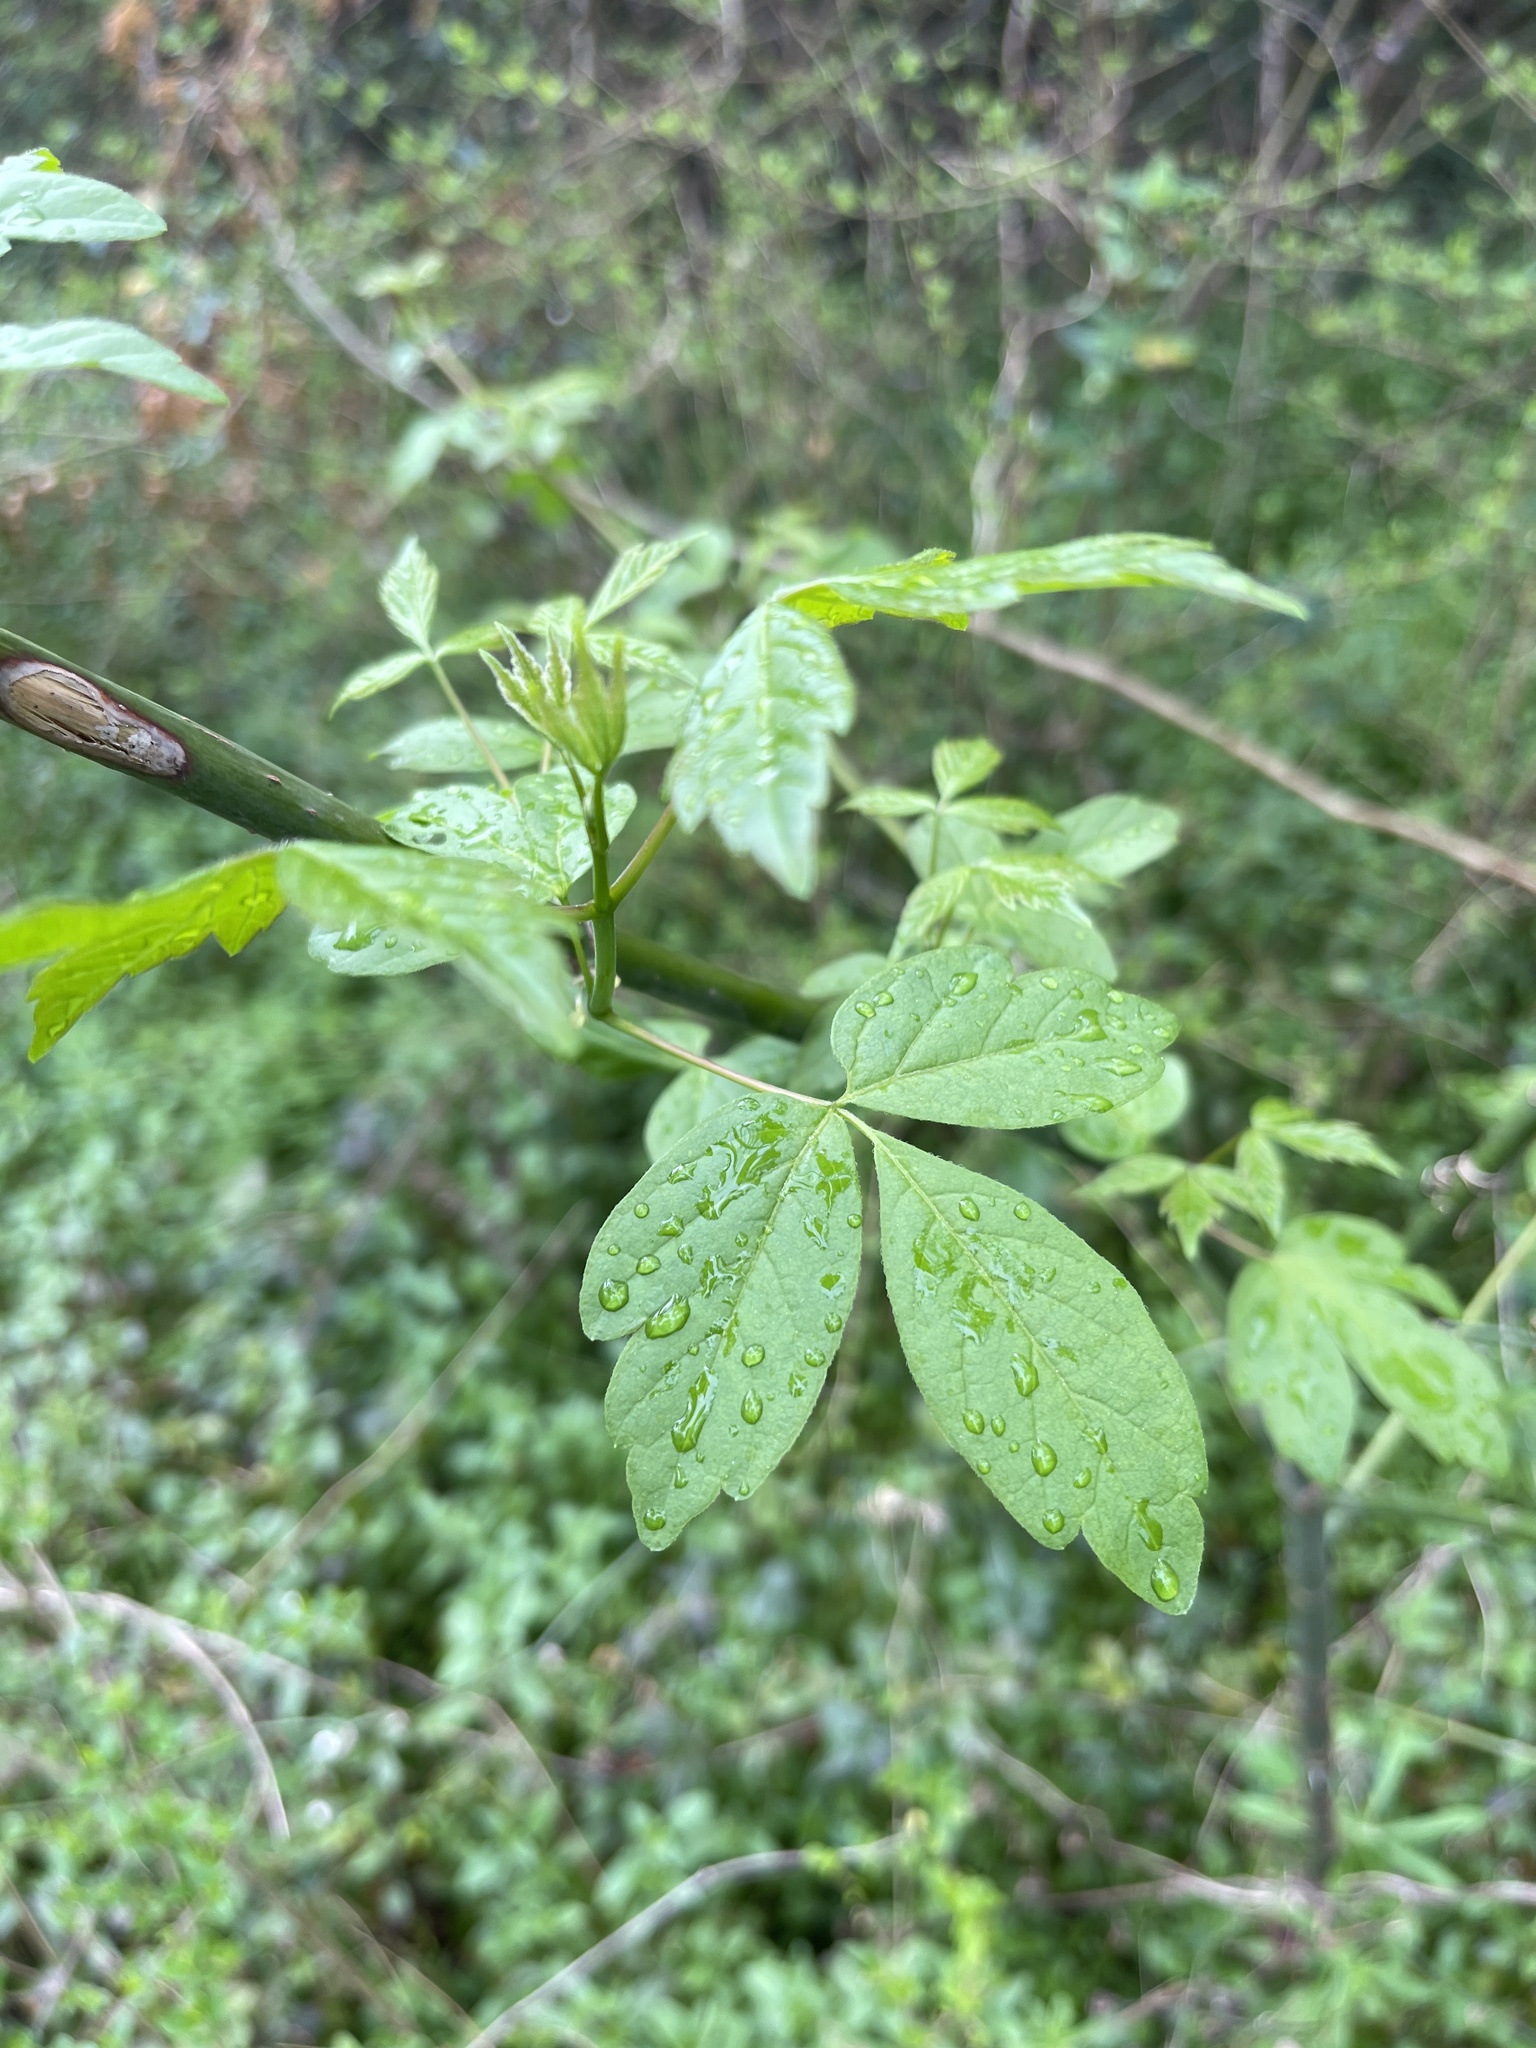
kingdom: Plantae
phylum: Tracheophyta
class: Magnoliopsida
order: Sapindales
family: Sapindaceae
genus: Acer
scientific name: Acer negundo
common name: Ashleaf maple
